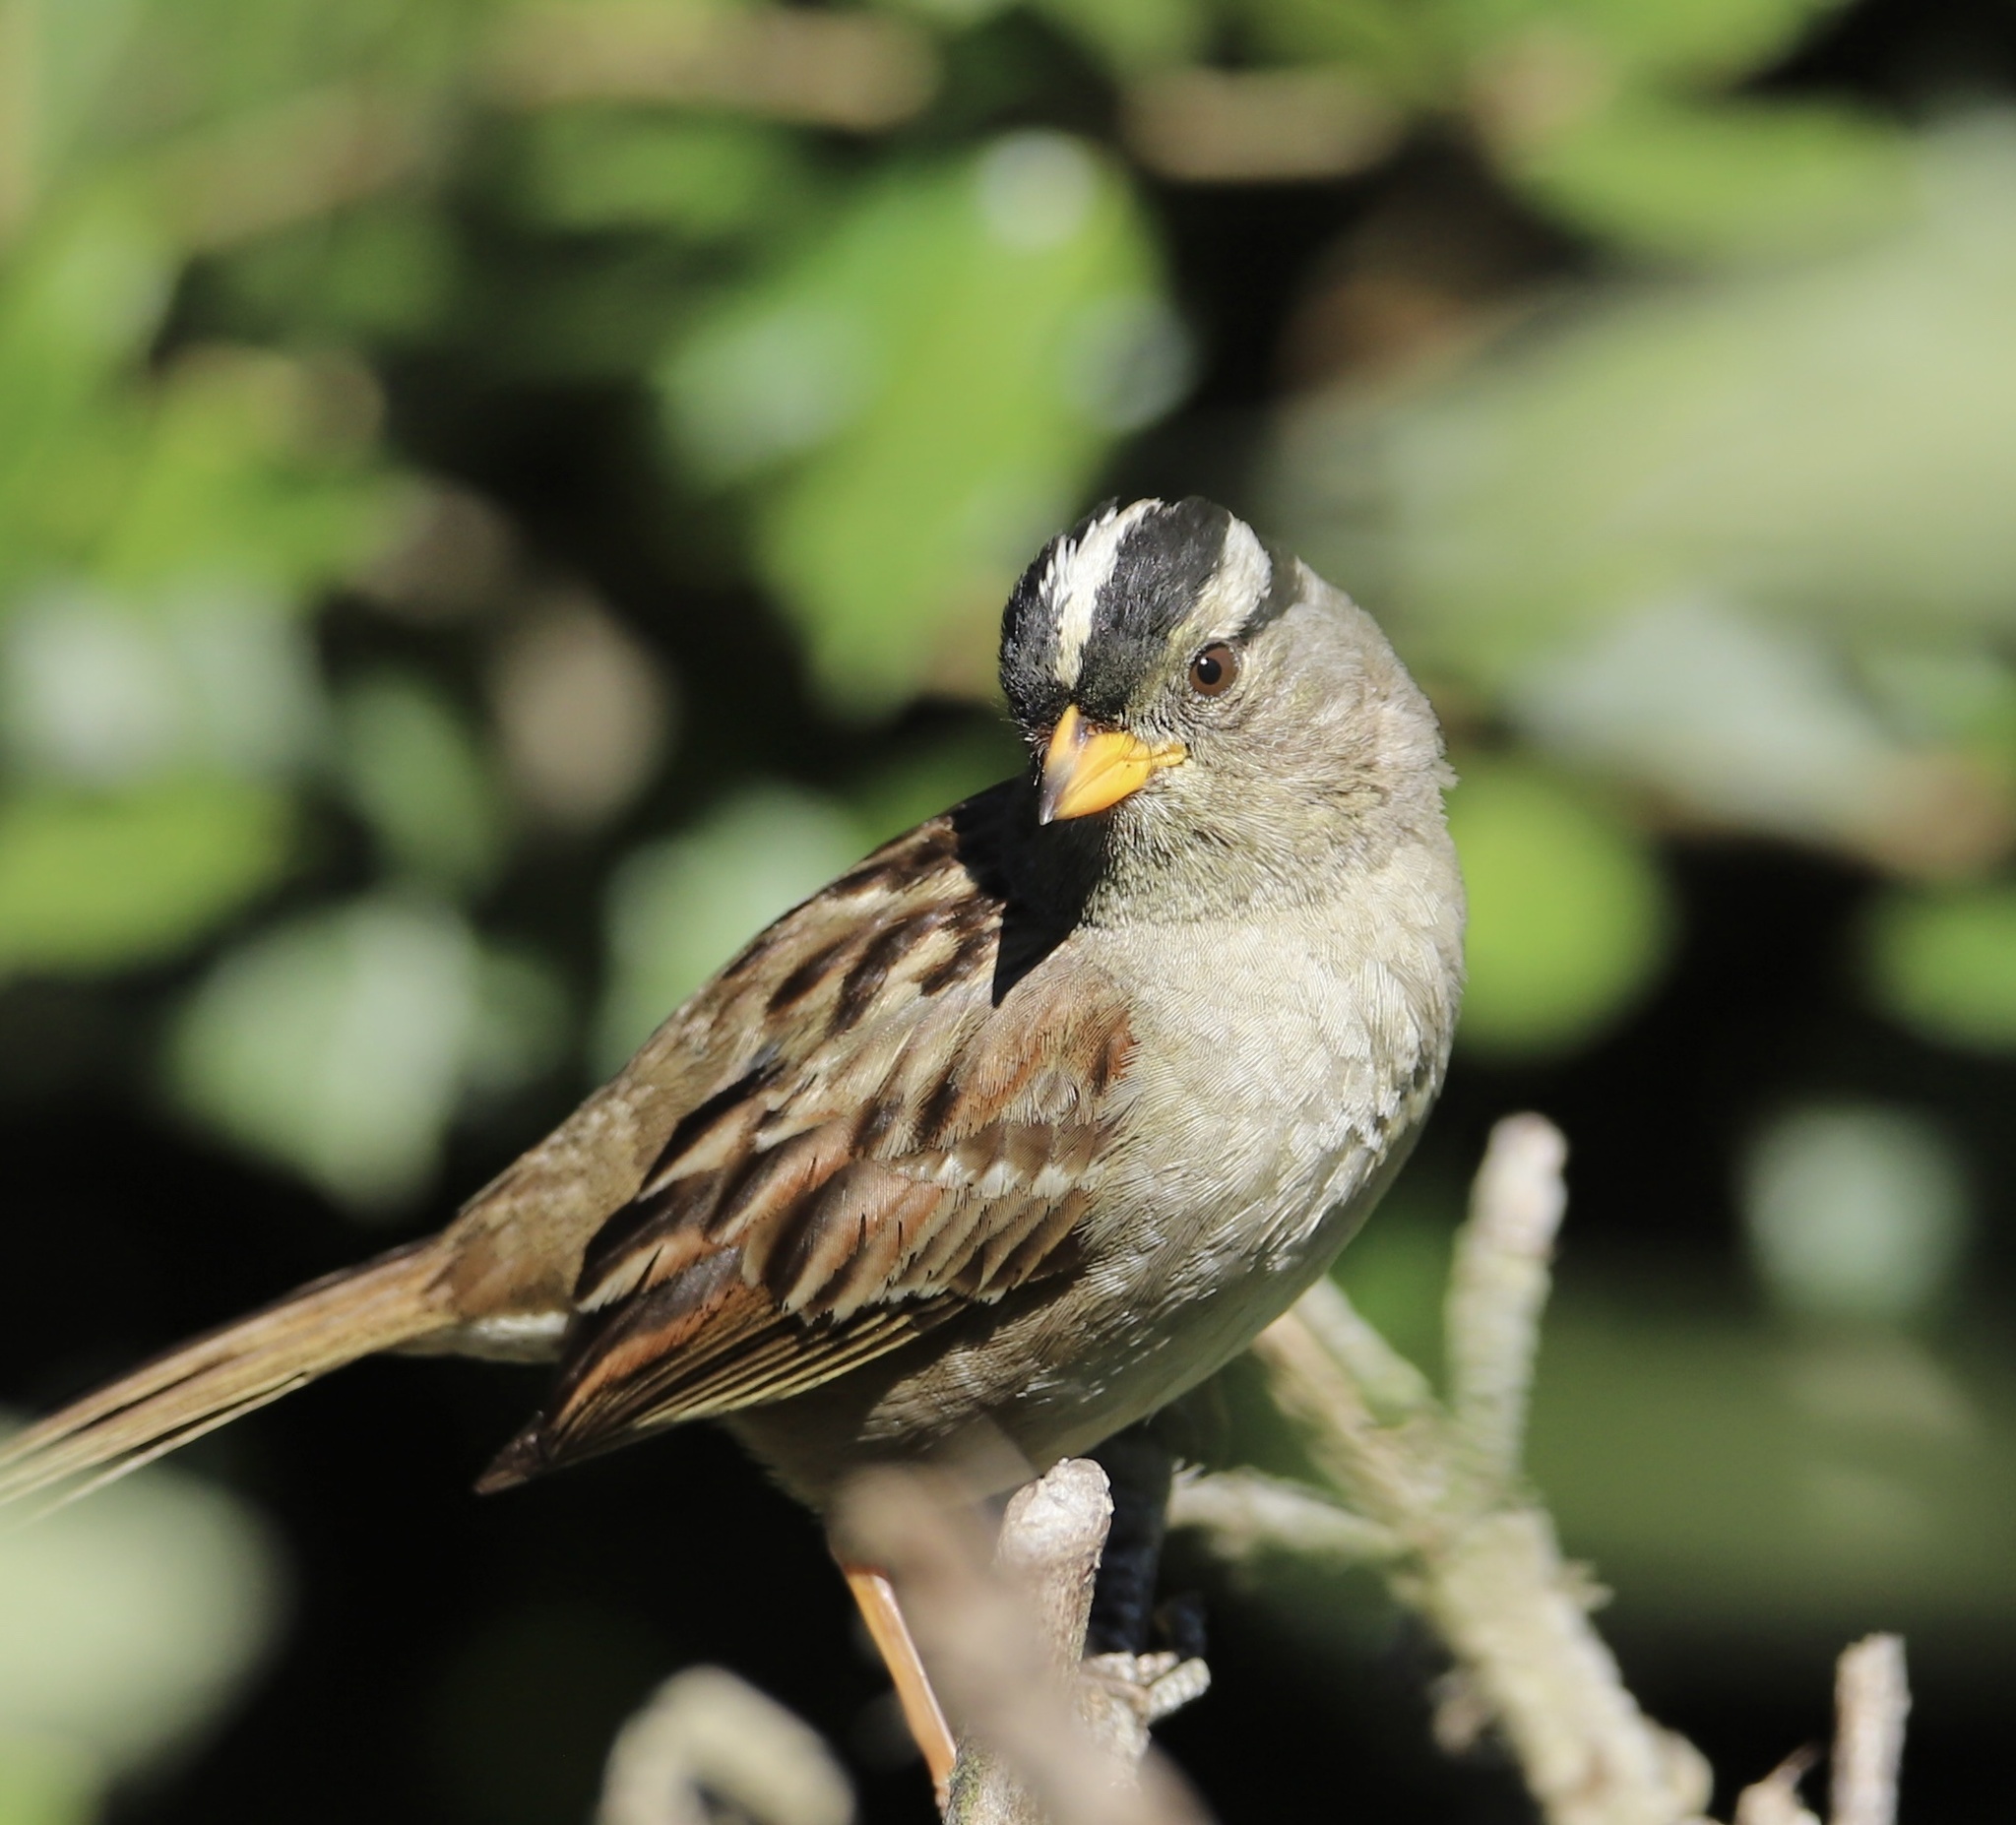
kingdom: Animalia
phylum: Chordata
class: Aves
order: Passeriformes
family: Passerellidae
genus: Zonotrichia
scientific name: Zonotrichia leucophrys
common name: White-crowned sparrow
